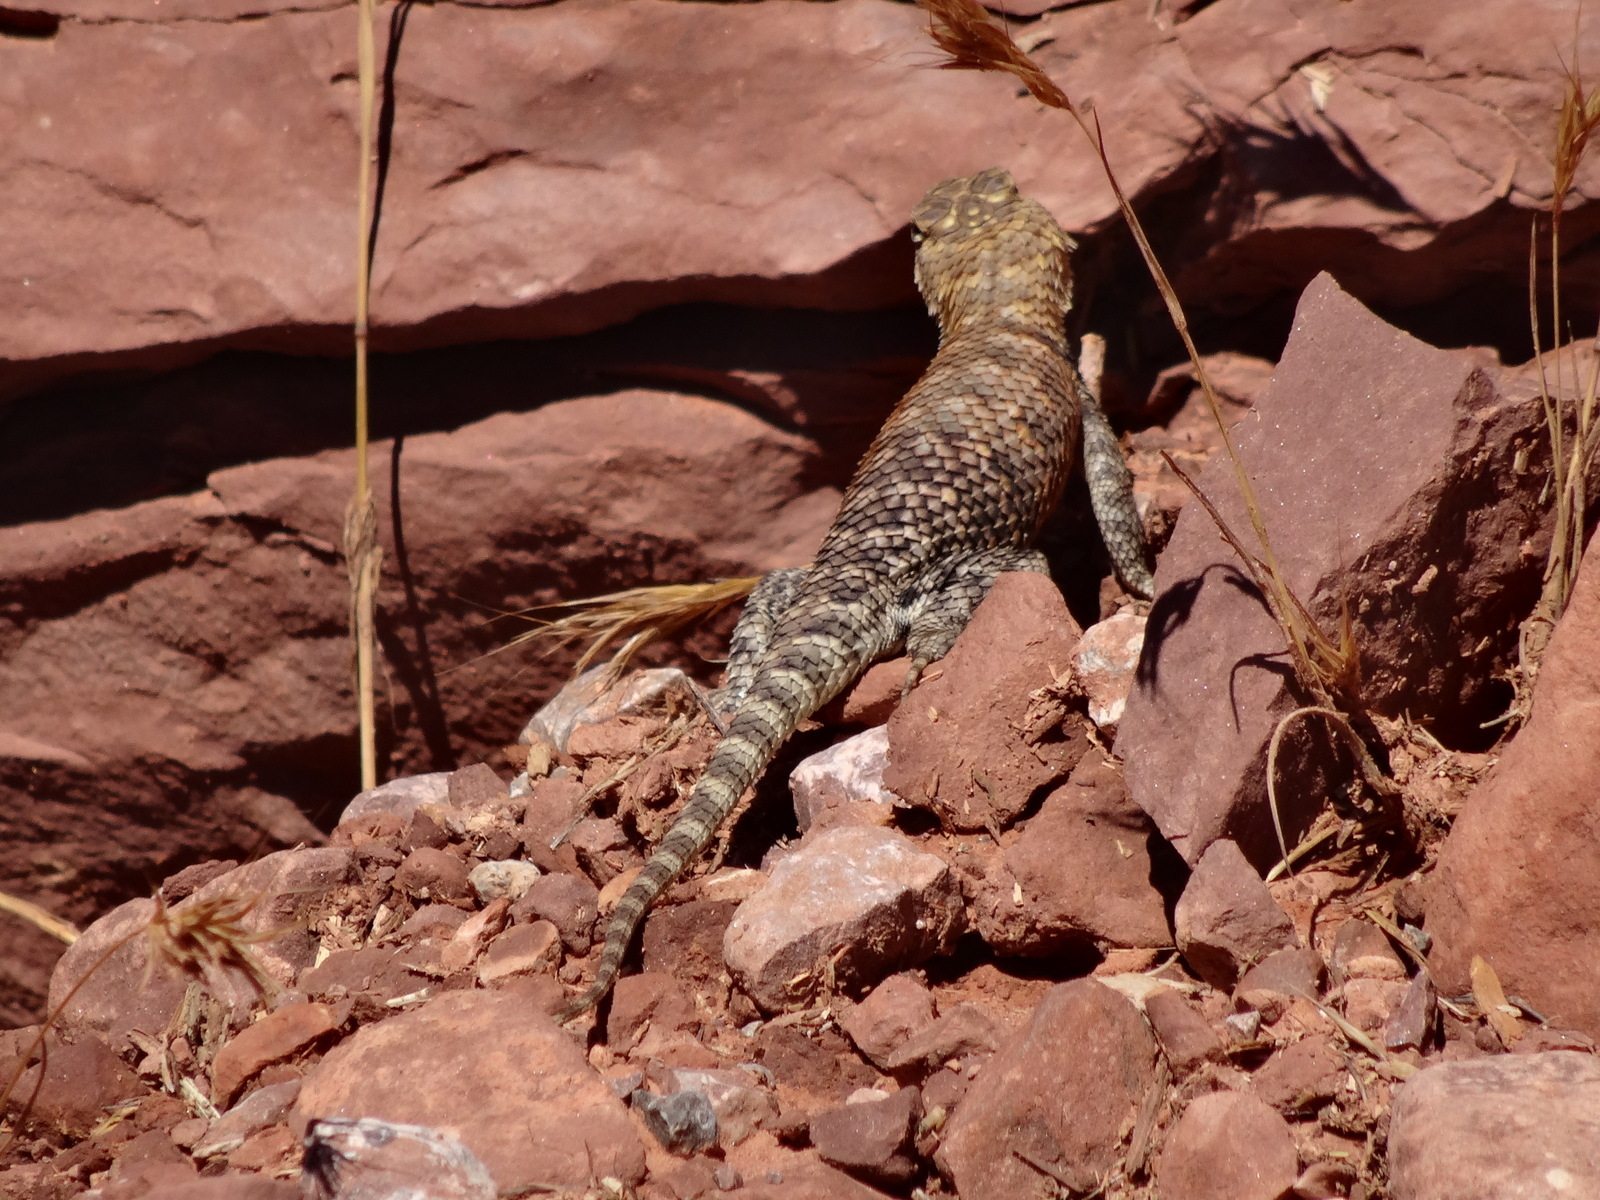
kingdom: Animalia
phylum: Chordata
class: Squamata
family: Phrynosomatidae
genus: Sceloporus
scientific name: Sceloporus magister
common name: Desert spiny lizard
